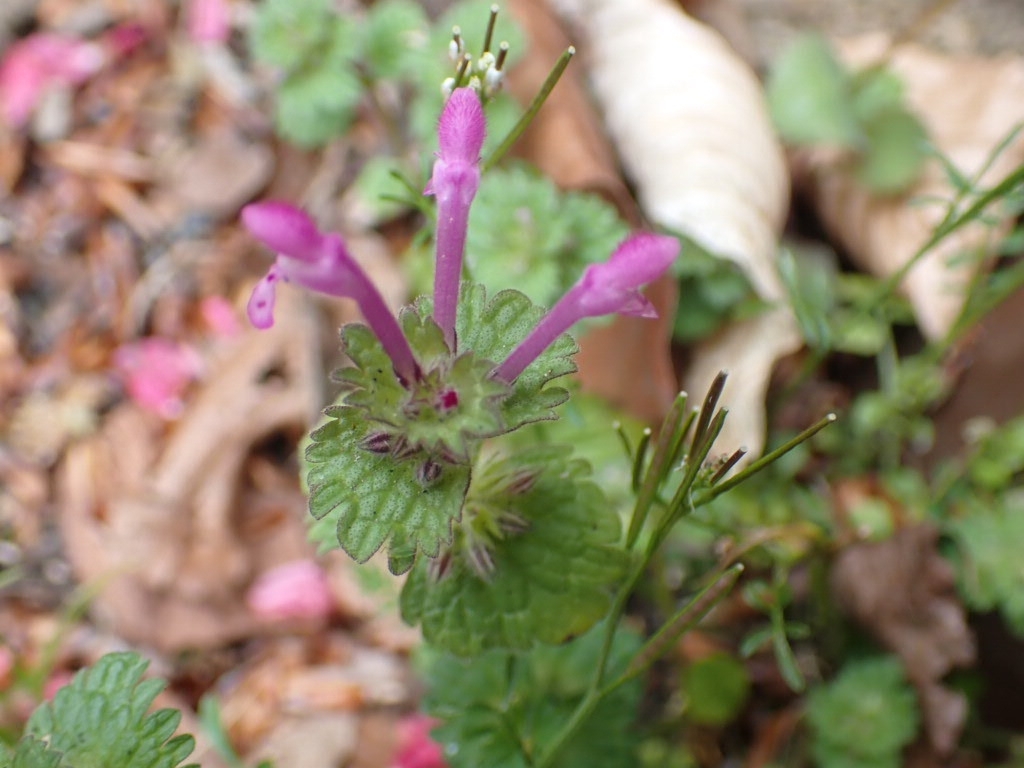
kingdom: Plantae
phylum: Tracheophyta
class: Magnoliopsida
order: Lamiales
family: Lamiaceae
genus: Lamium
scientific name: Lamium amplexicaule
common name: Henbit dead-nettle
